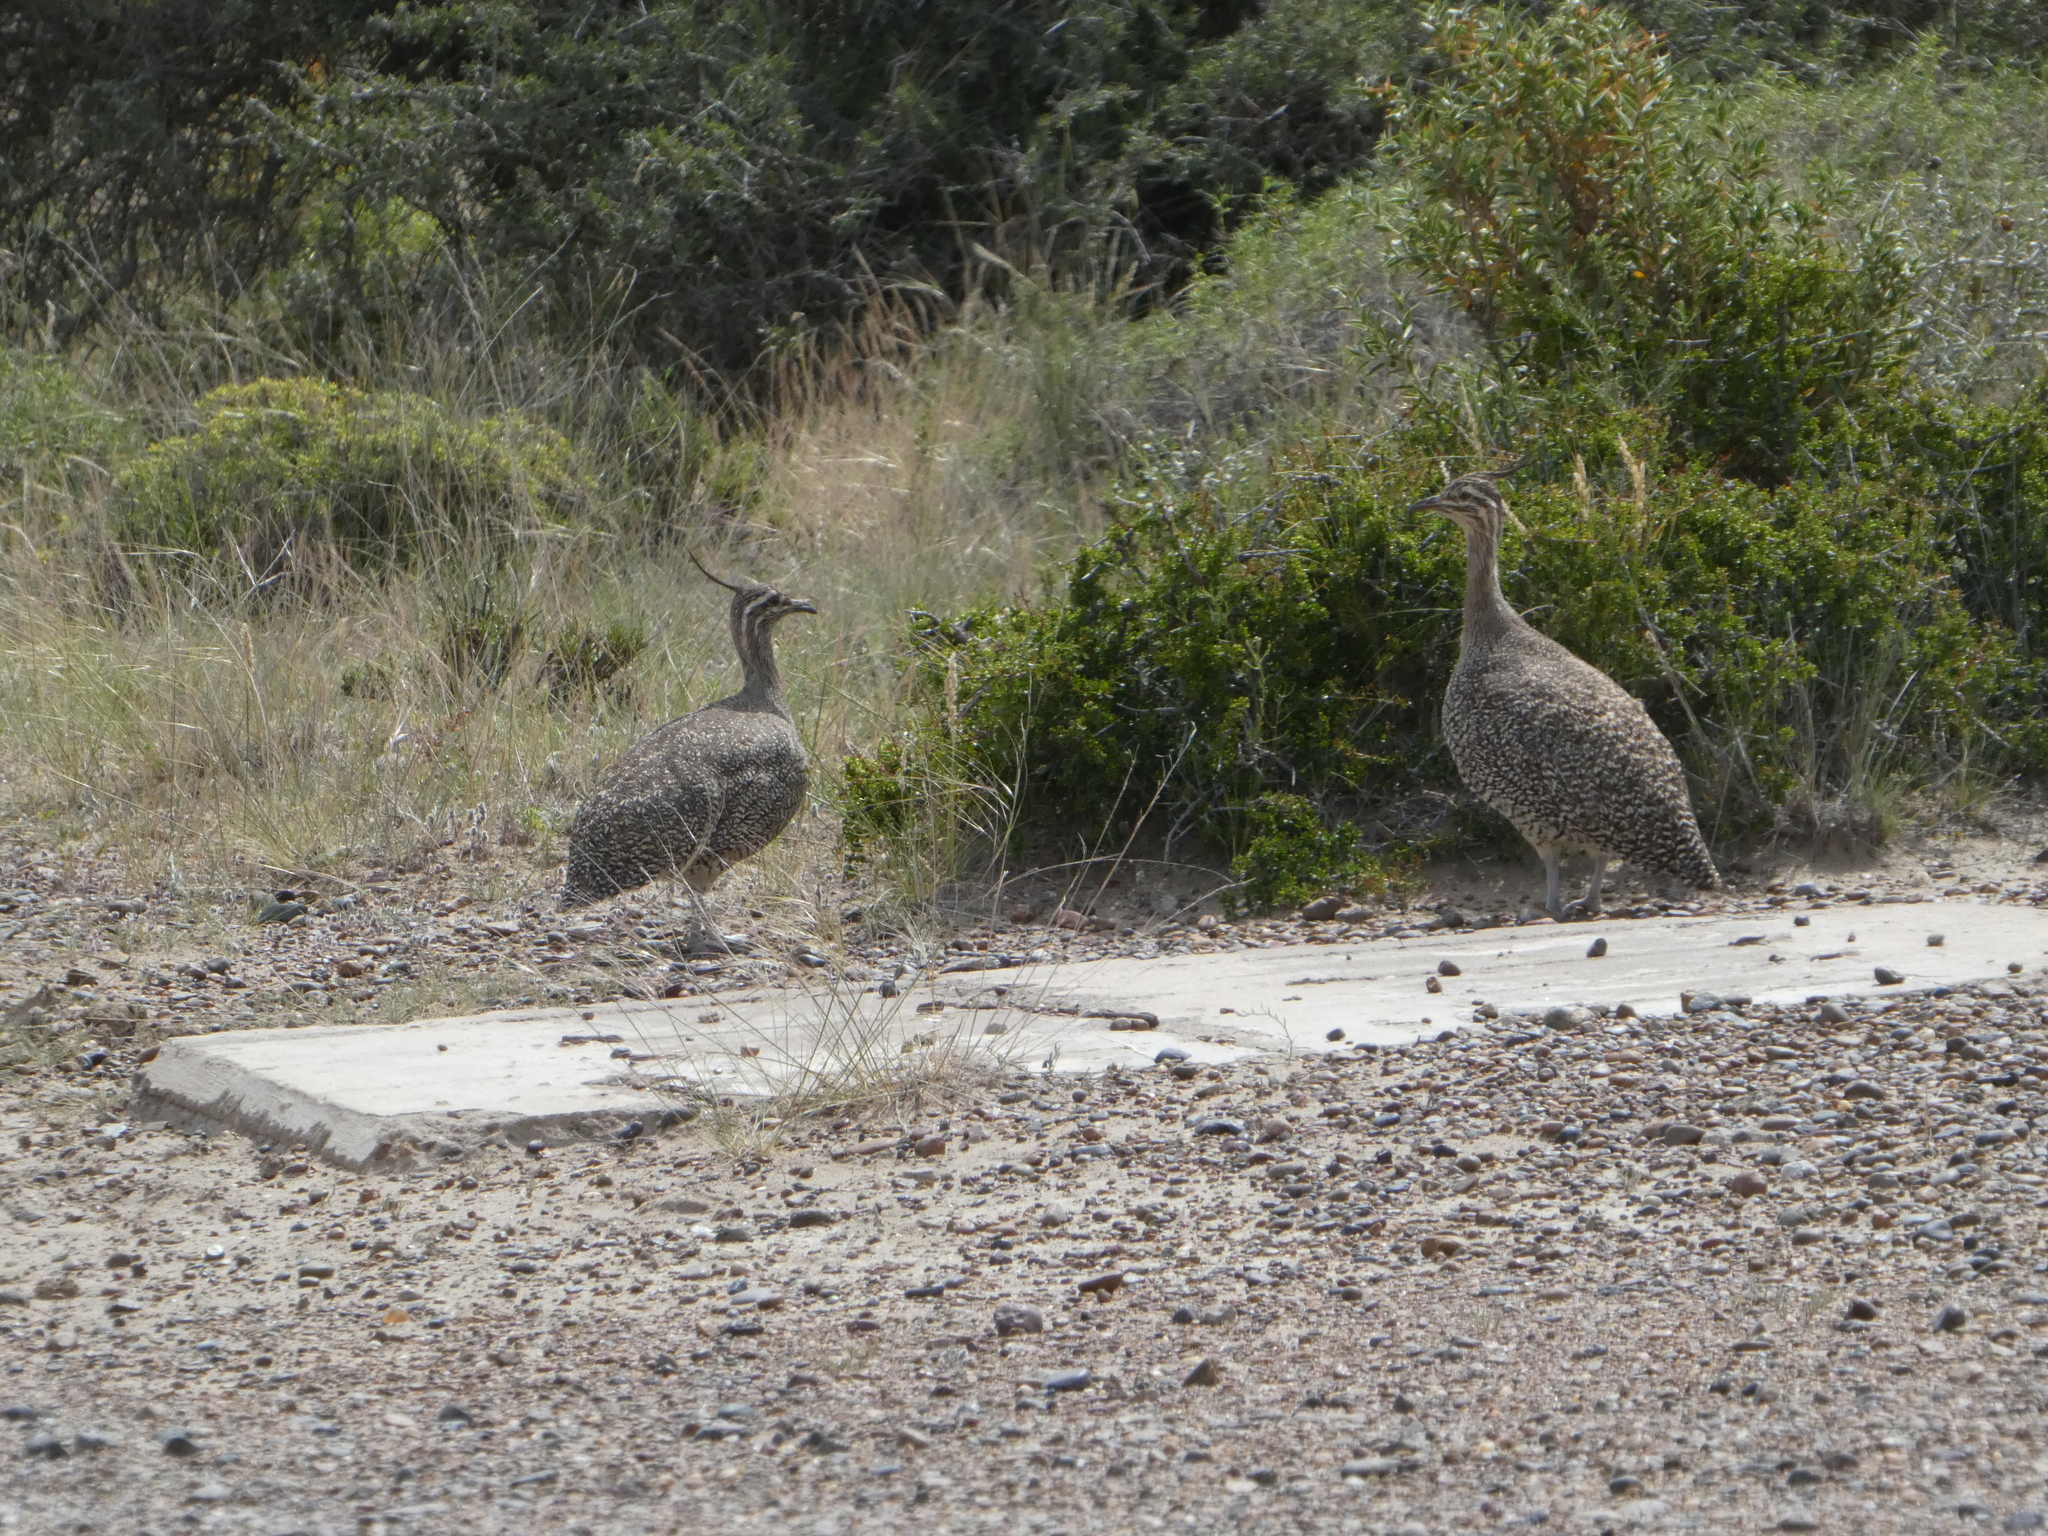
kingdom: Animalia
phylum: Chordata
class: Aves
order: Tinamiformes
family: Tinamidae
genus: Eudromia
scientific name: Eudromia elegans
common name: Elegant crested tinamou
